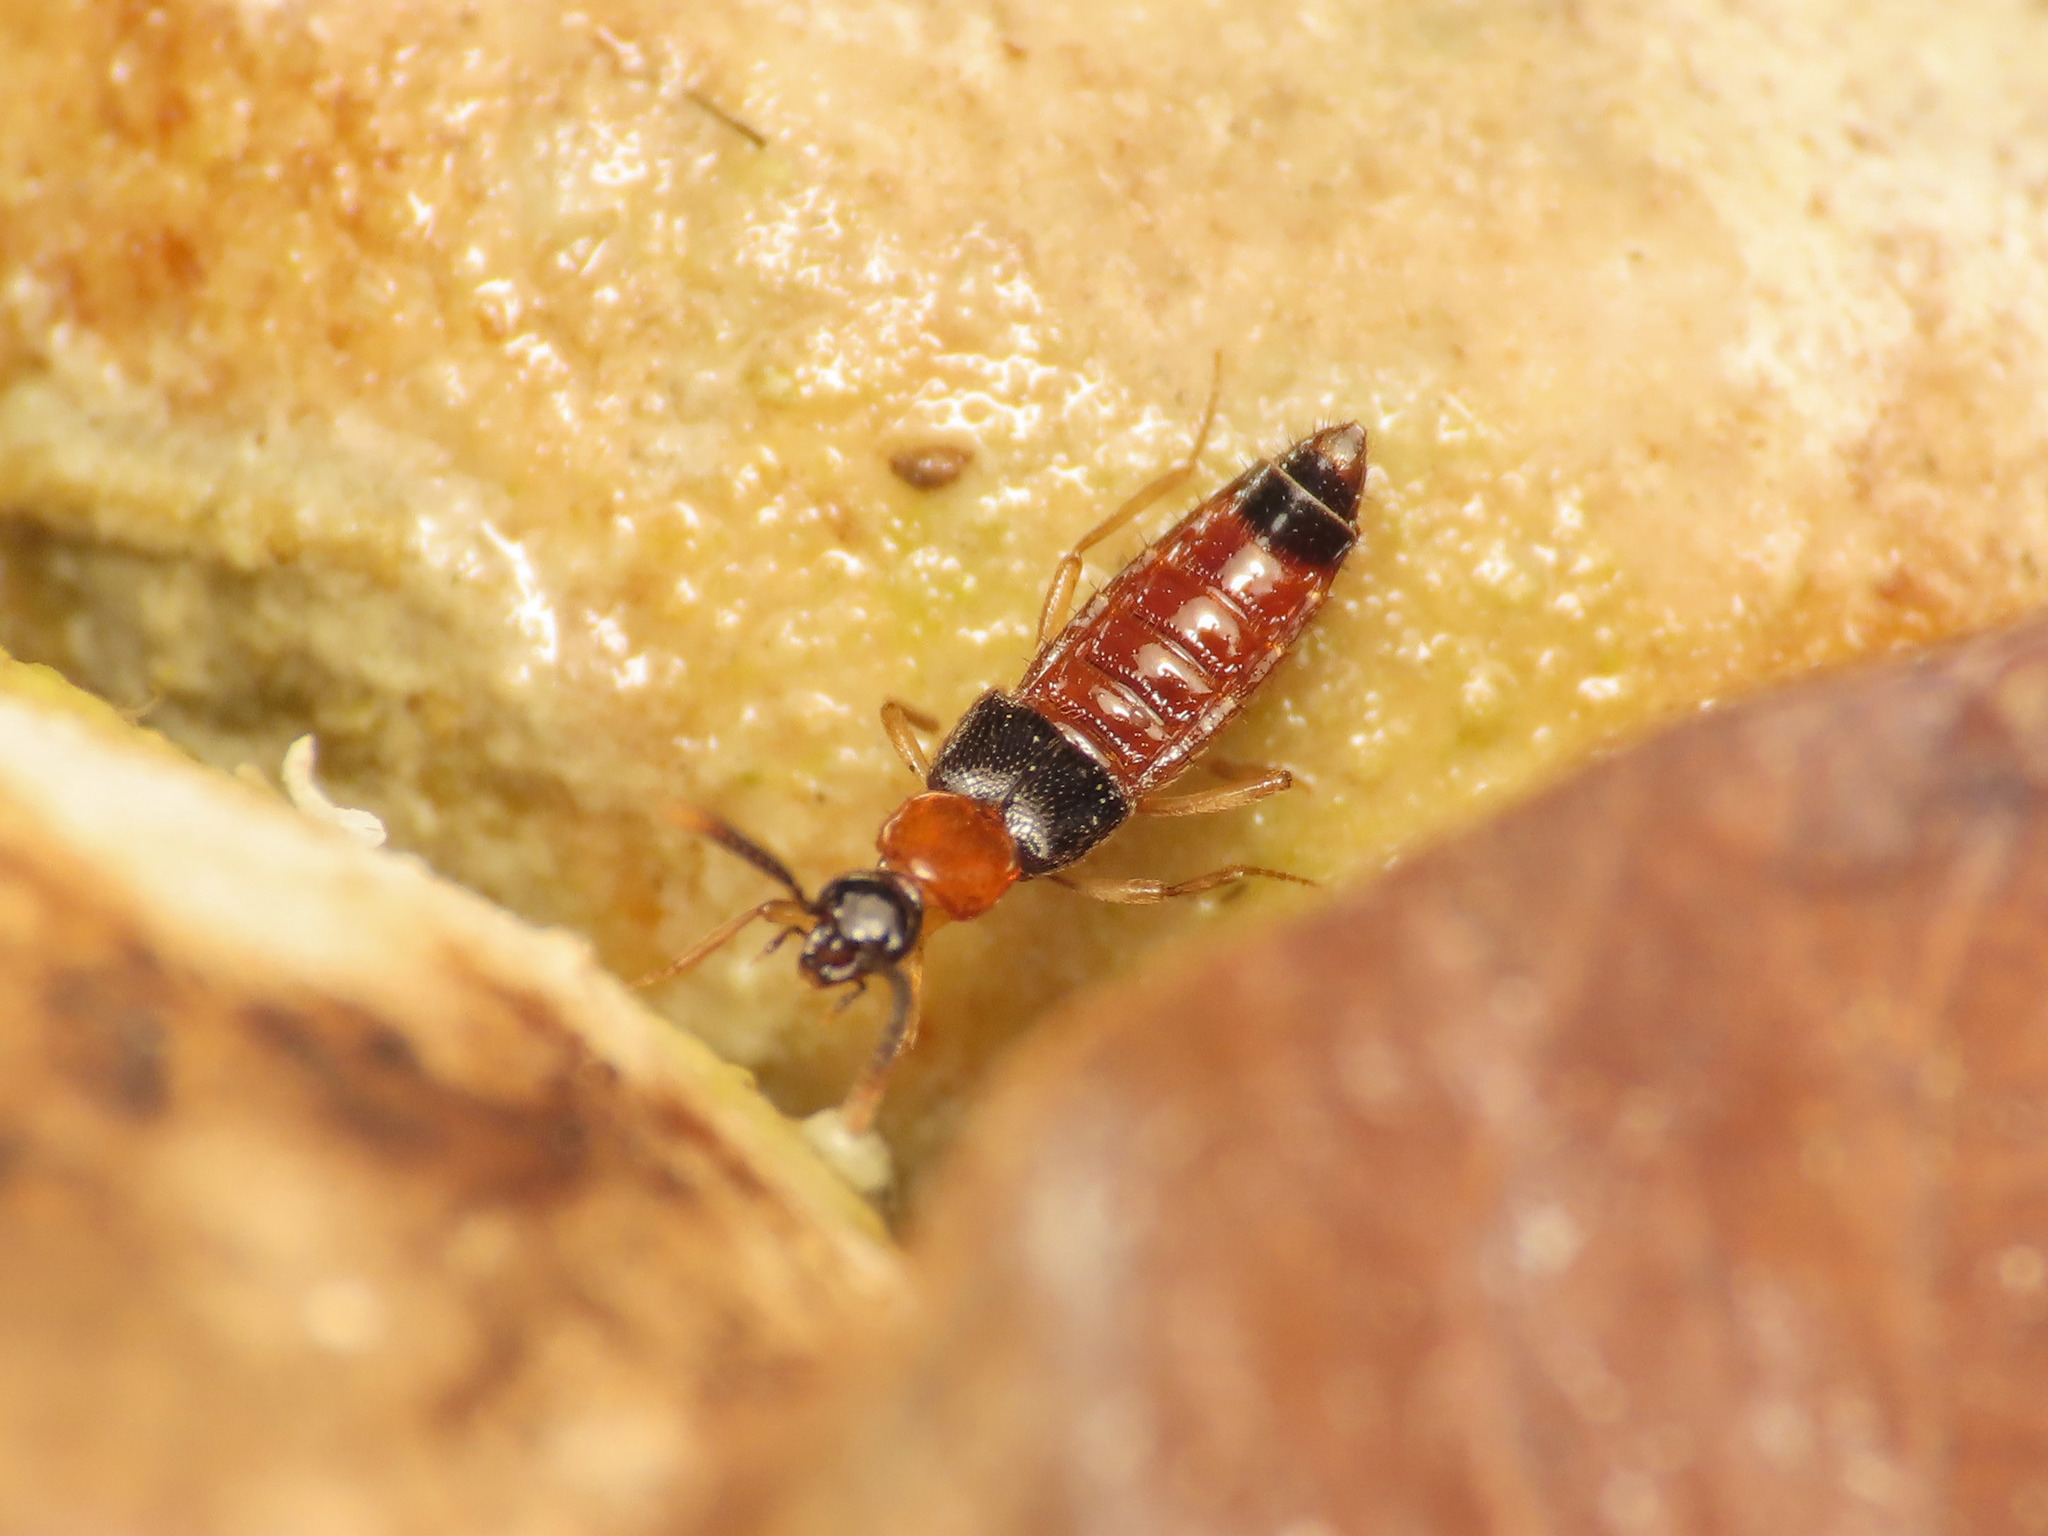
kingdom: Animalia
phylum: Arthropoda
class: Insecta
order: Coleoptera
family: Staphylinidae
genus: Zyras
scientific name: Zyras collaris
